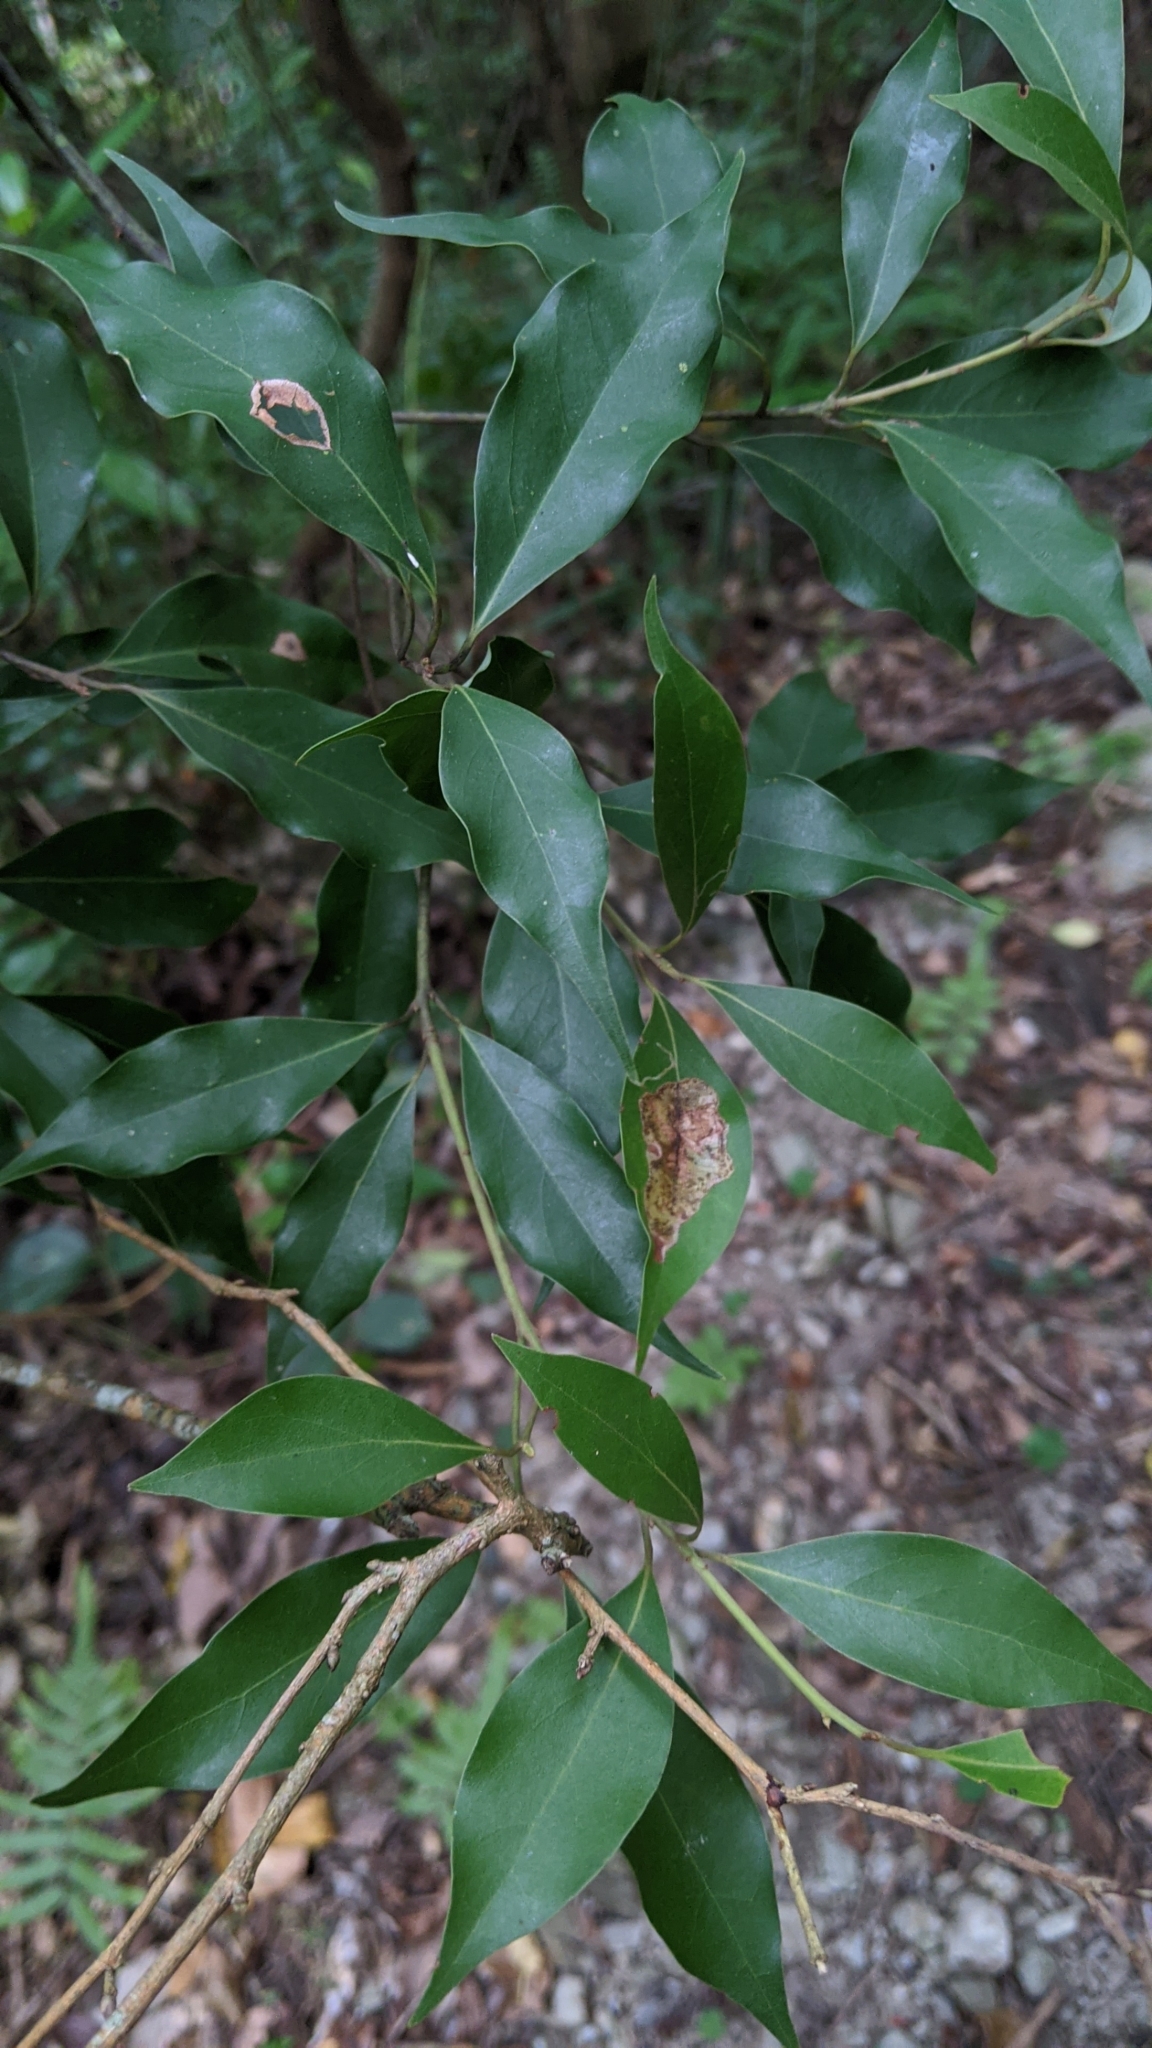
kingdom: Plantae
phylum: Tracheophyta
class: Magnoliopsida
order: Laurales
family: Lauraceae
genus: Cinnamomum
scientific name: Cinnamomum philippinense
